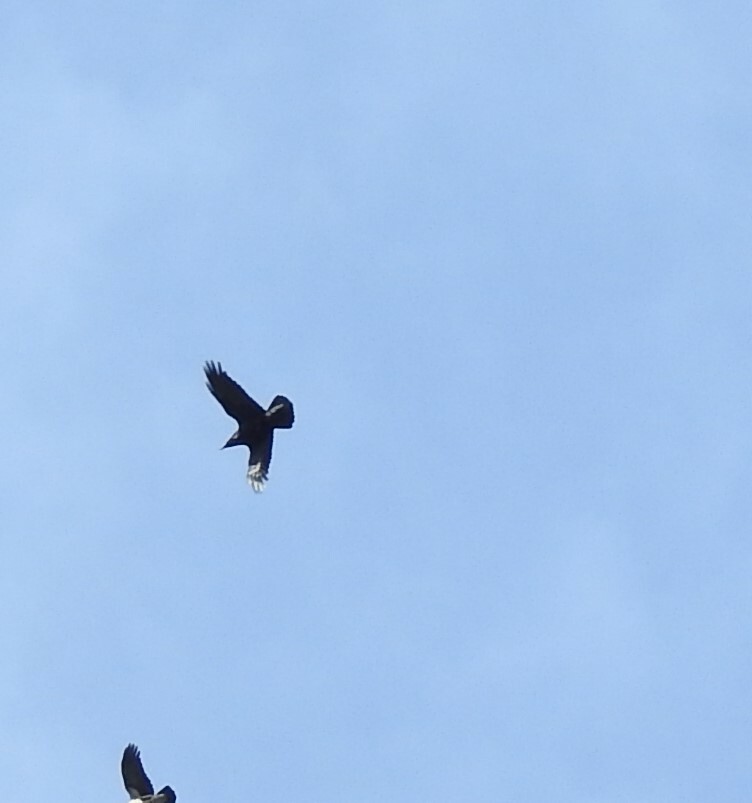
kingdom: Animalia
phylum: Chordata
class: Aves
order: Passeriformes
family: Corvidae
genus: Corvus
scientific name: Corvus corax
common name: Common raven
